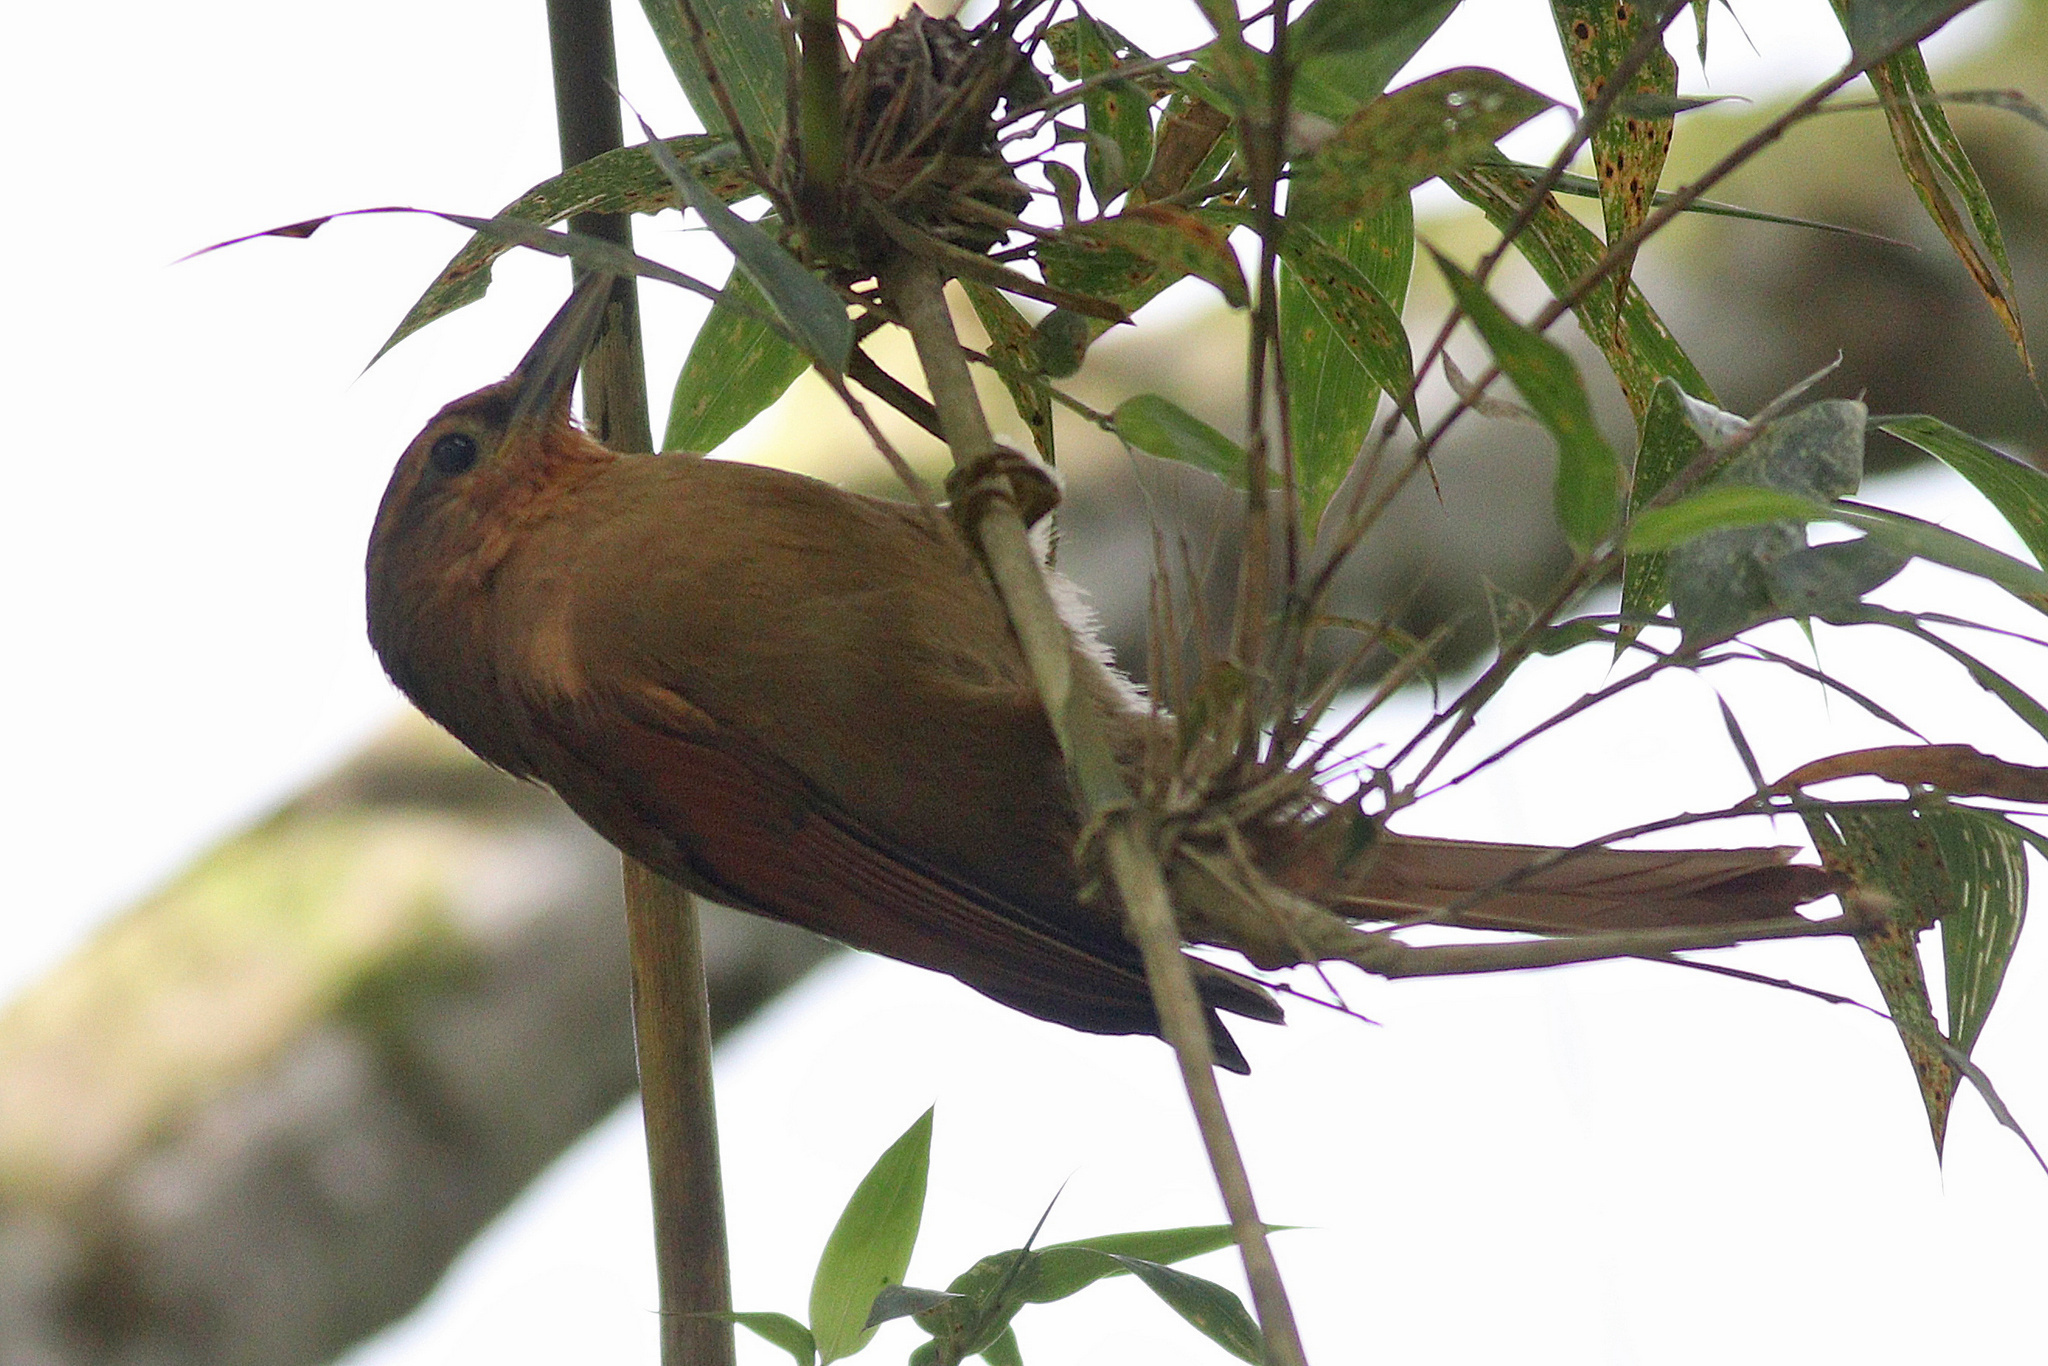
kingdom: Animalia
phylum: Chordata
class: Aves
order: Passeriformes
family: Furnariidae
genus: Philydor
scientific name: Philydor rufum
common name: Buff-fronted foliage-gleaner
